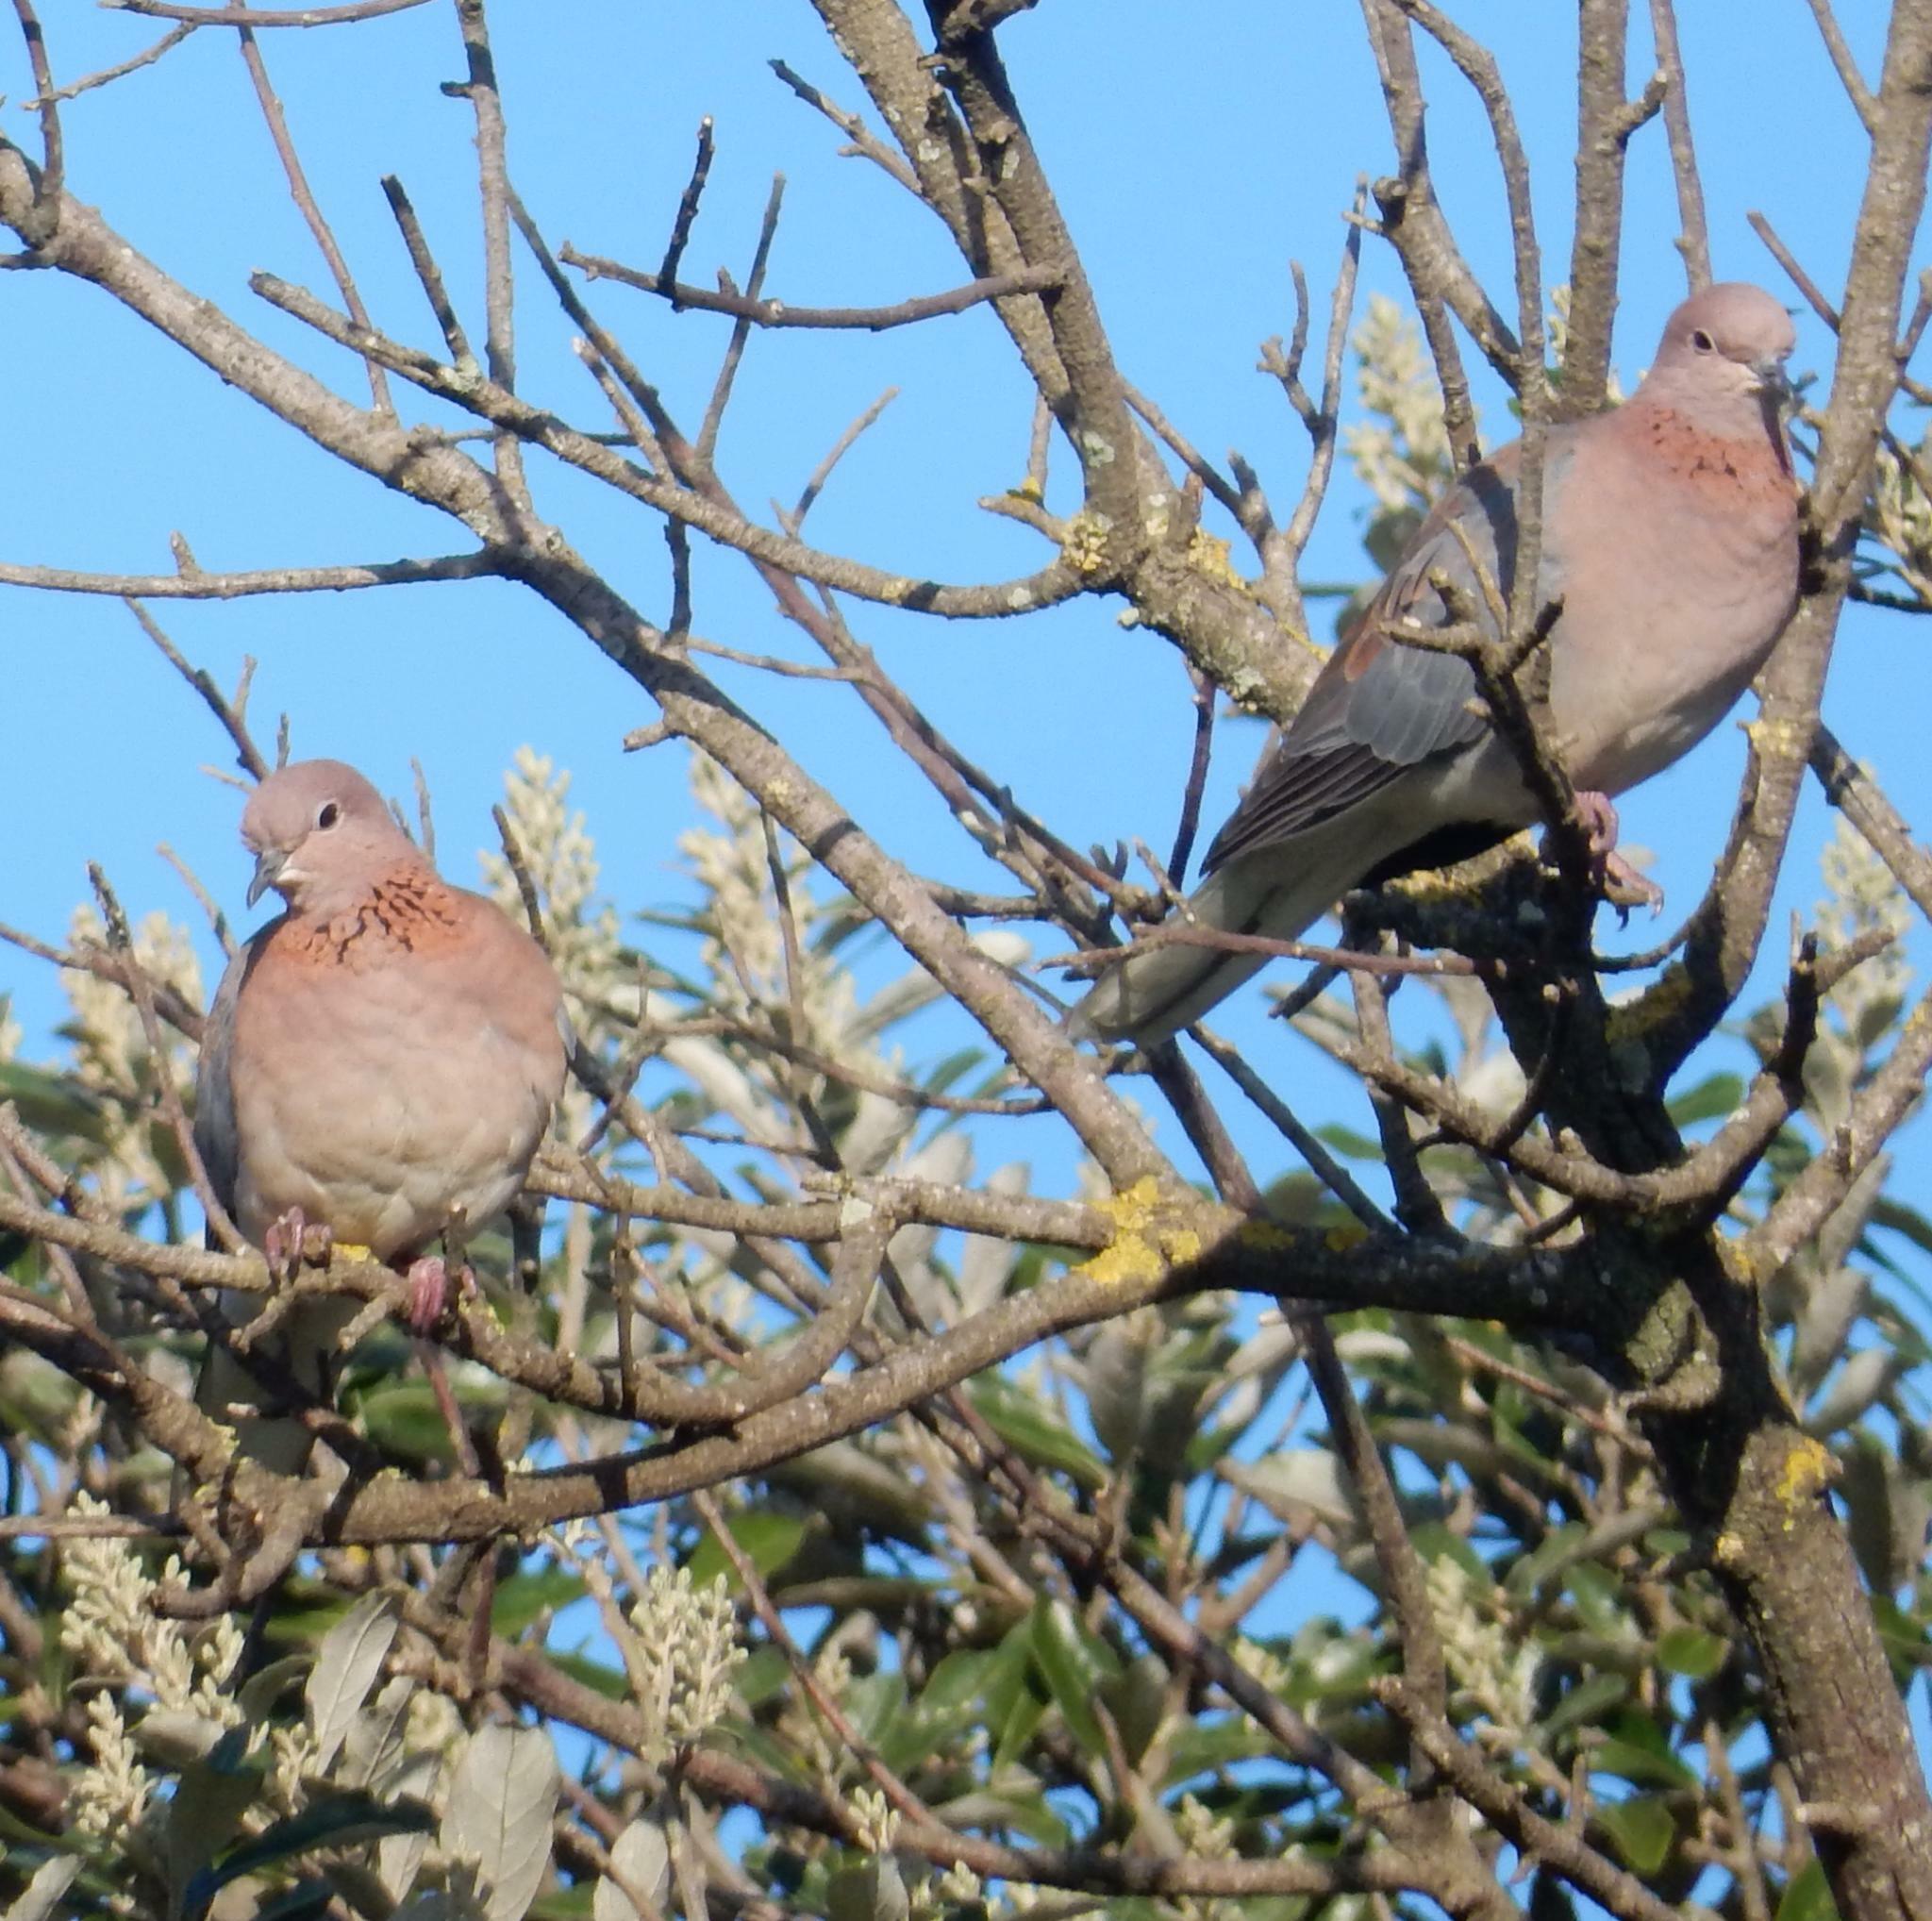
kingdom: Animalia
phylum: Chordata
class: Aves
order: Columbiformes
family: Columbidae
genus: Spilopelia
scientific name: Spilopelia senegalensis
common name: Laughing dove
